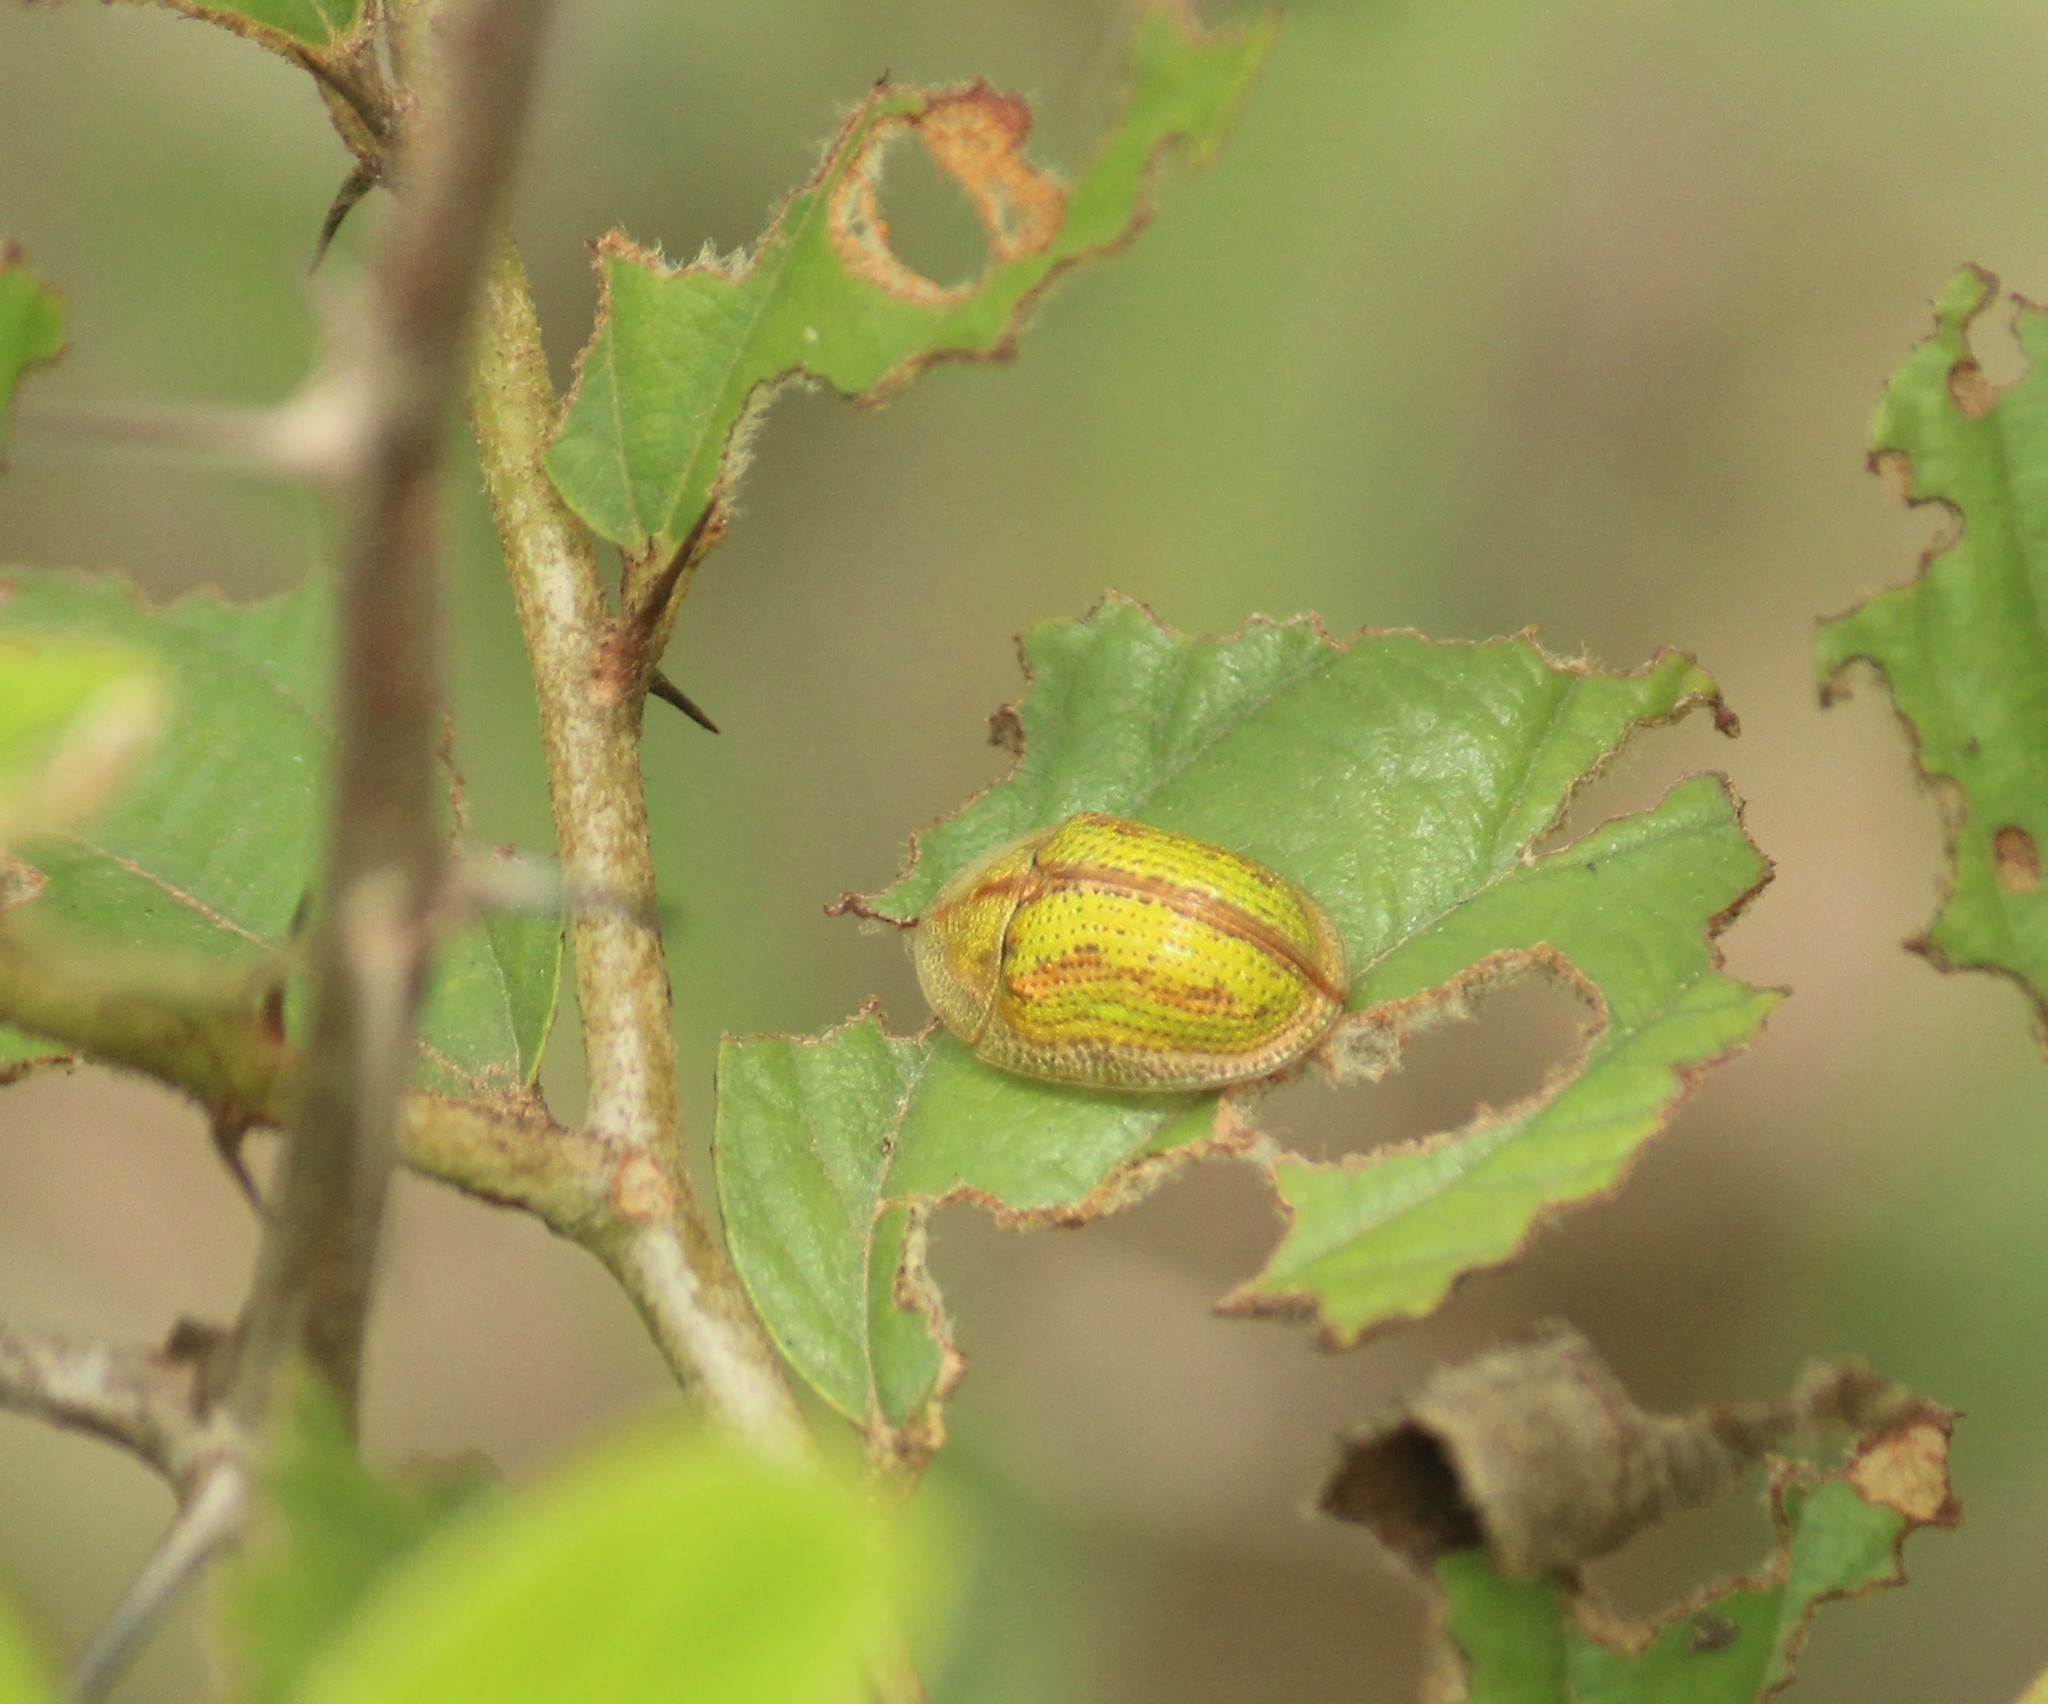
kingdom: Animalia
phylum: Arthropoda
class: Insecta
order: Coleoptera
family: Chrysomelidae
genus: Oocassida
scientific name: Oocassida cruenta
